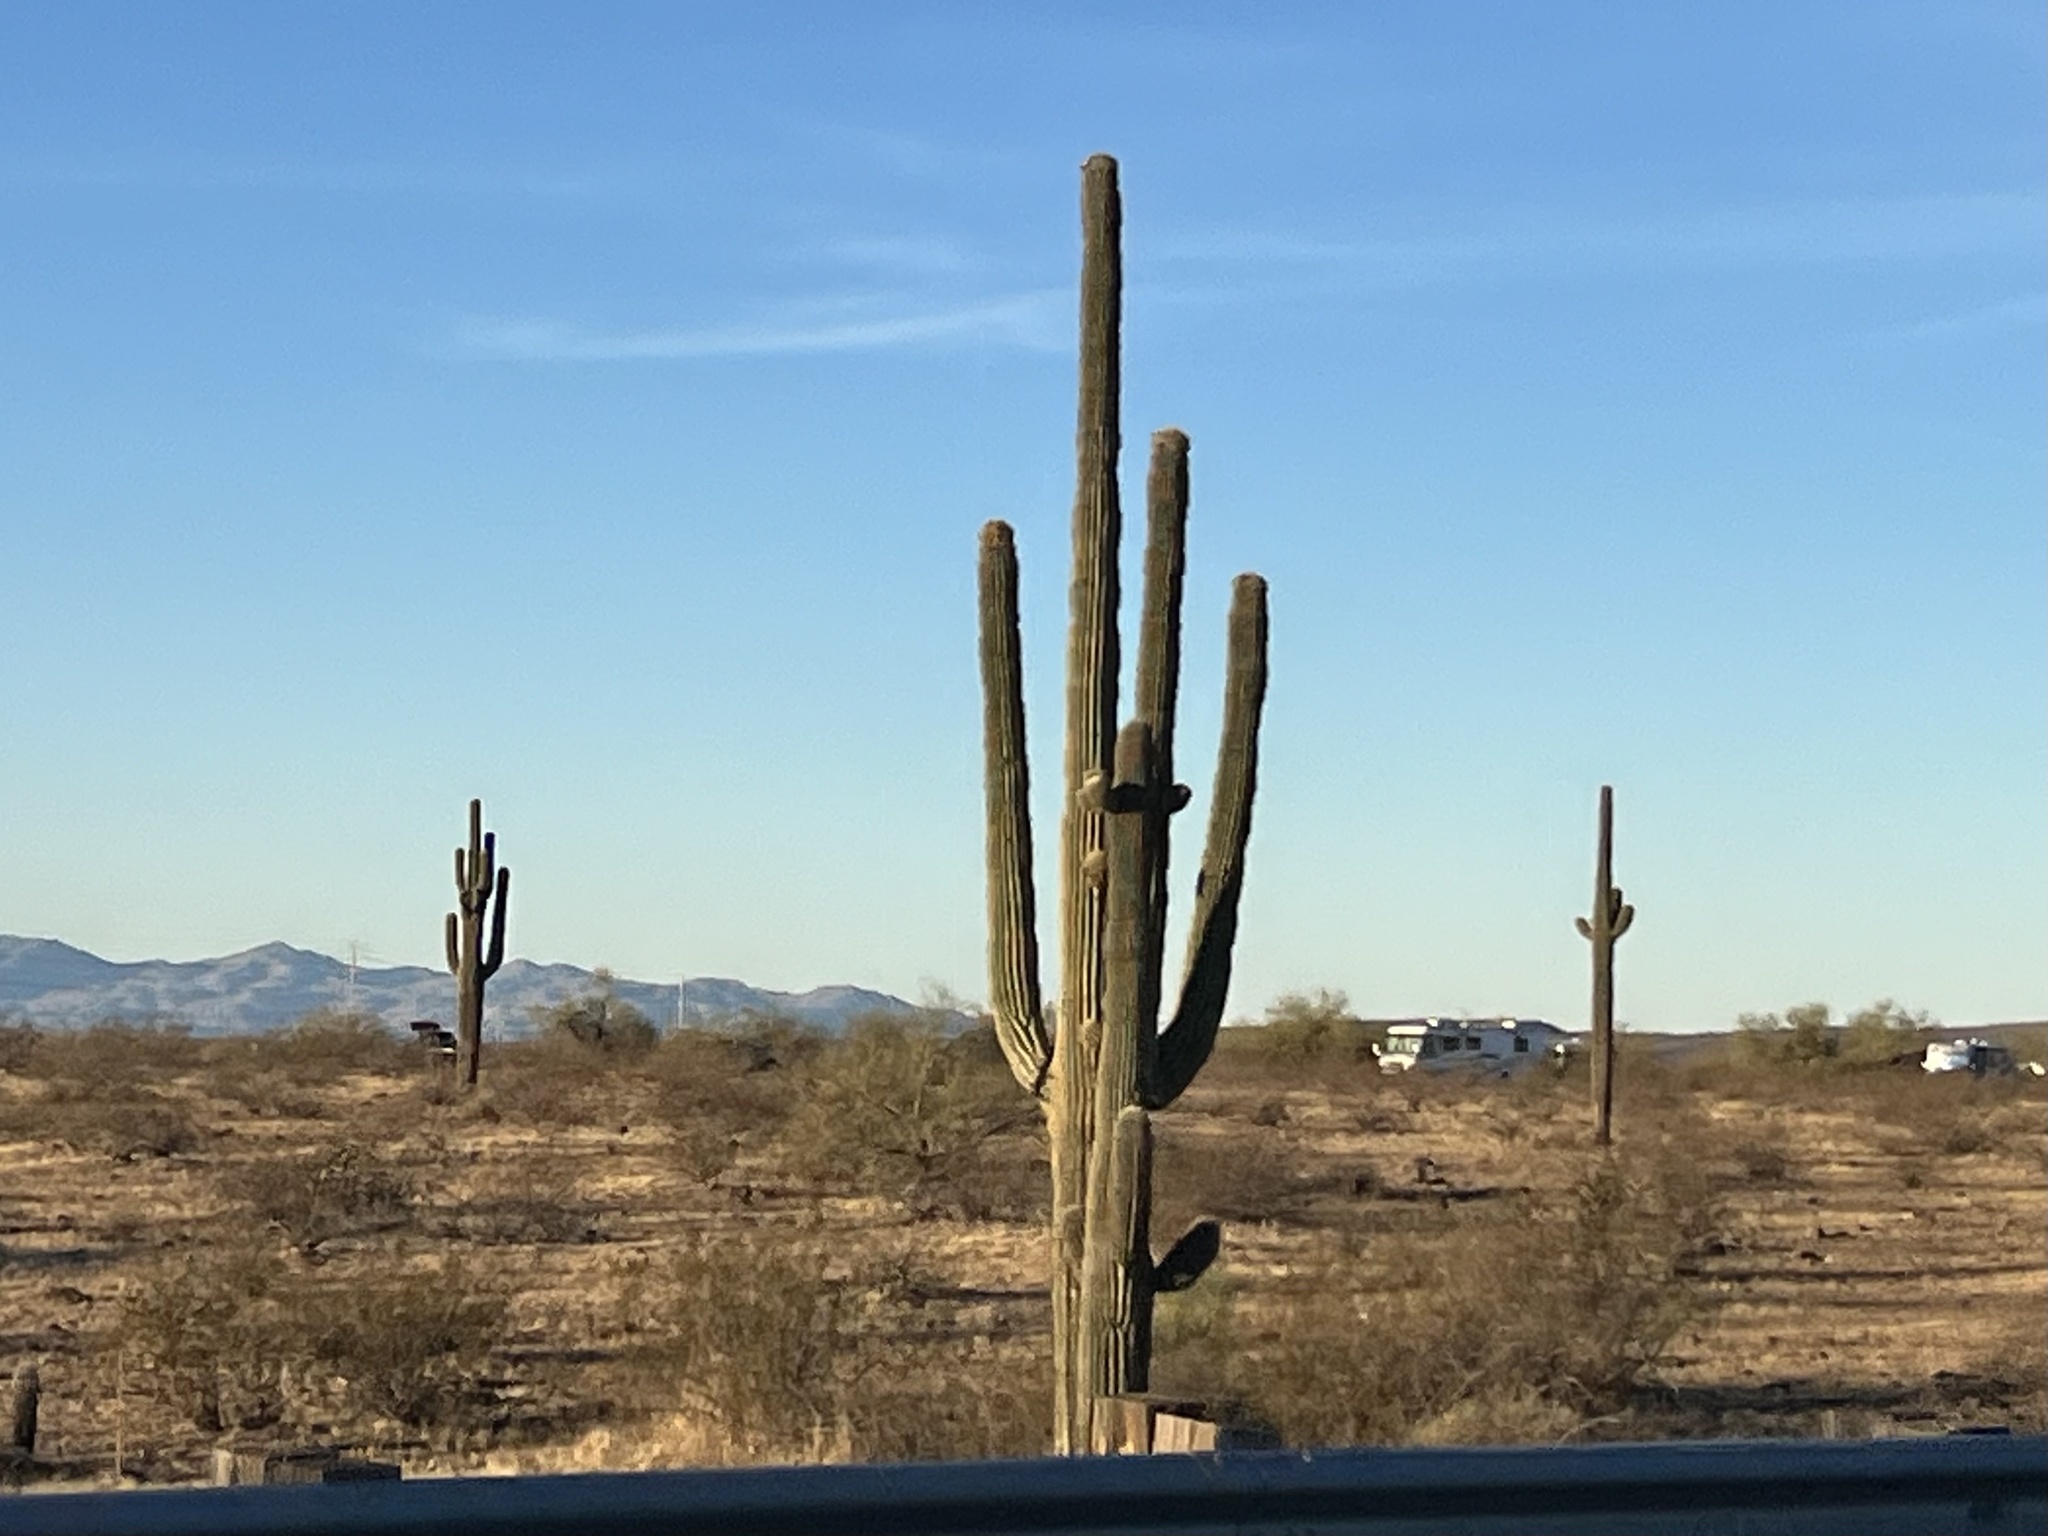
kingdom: Plantae
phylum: Tracheophyta
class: Magnoliopsida
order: Caryophyllales
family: Cactaceae
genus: Carnegiea
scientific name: Carnegiea gigantea
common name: Saguaro
